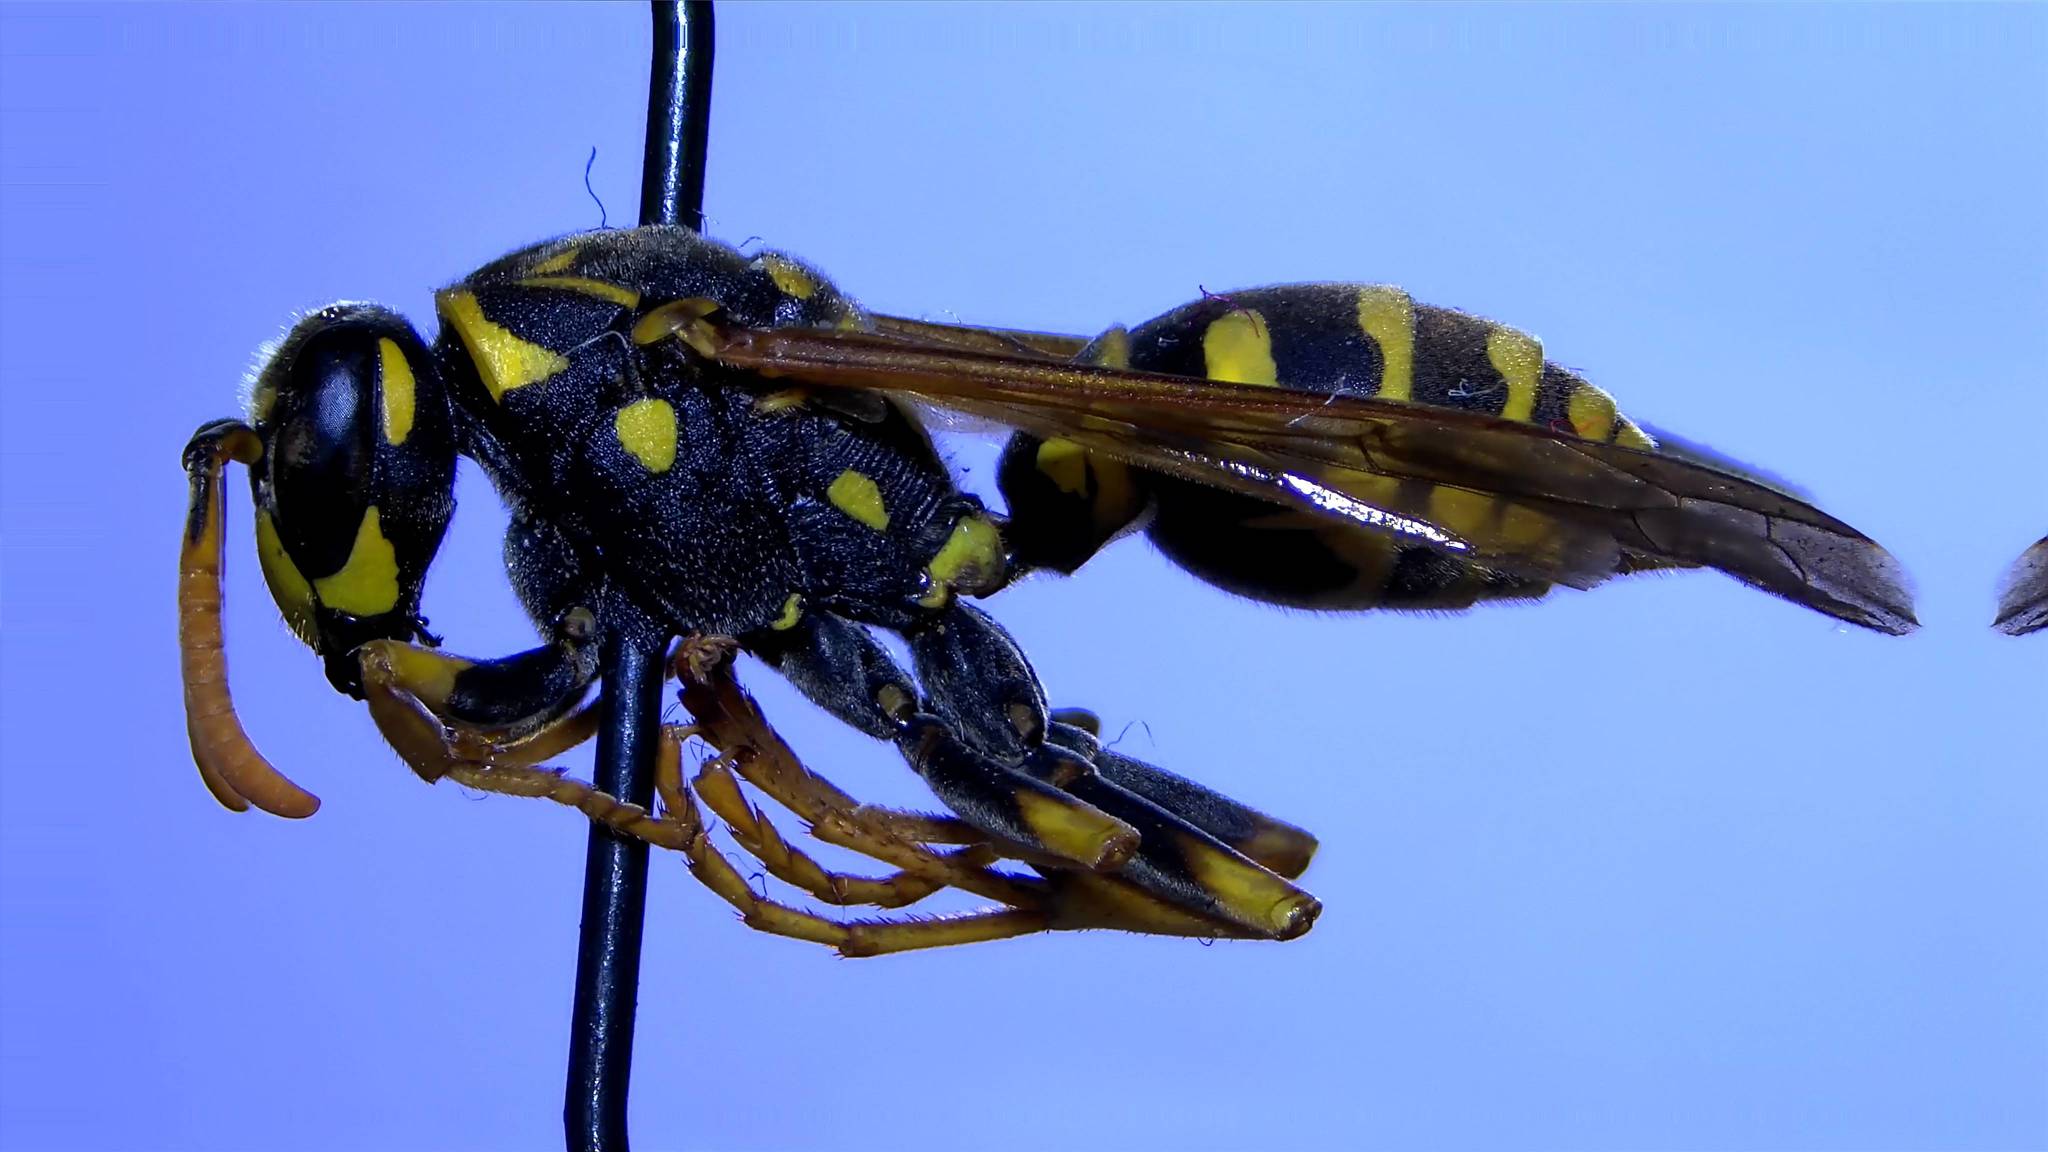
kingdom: Animalia
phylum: Arthropoda
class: Insecta
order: Hymenoptera
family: Eumenidae
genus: Polistes
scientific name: Polistes dominula
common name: Paper wasp
